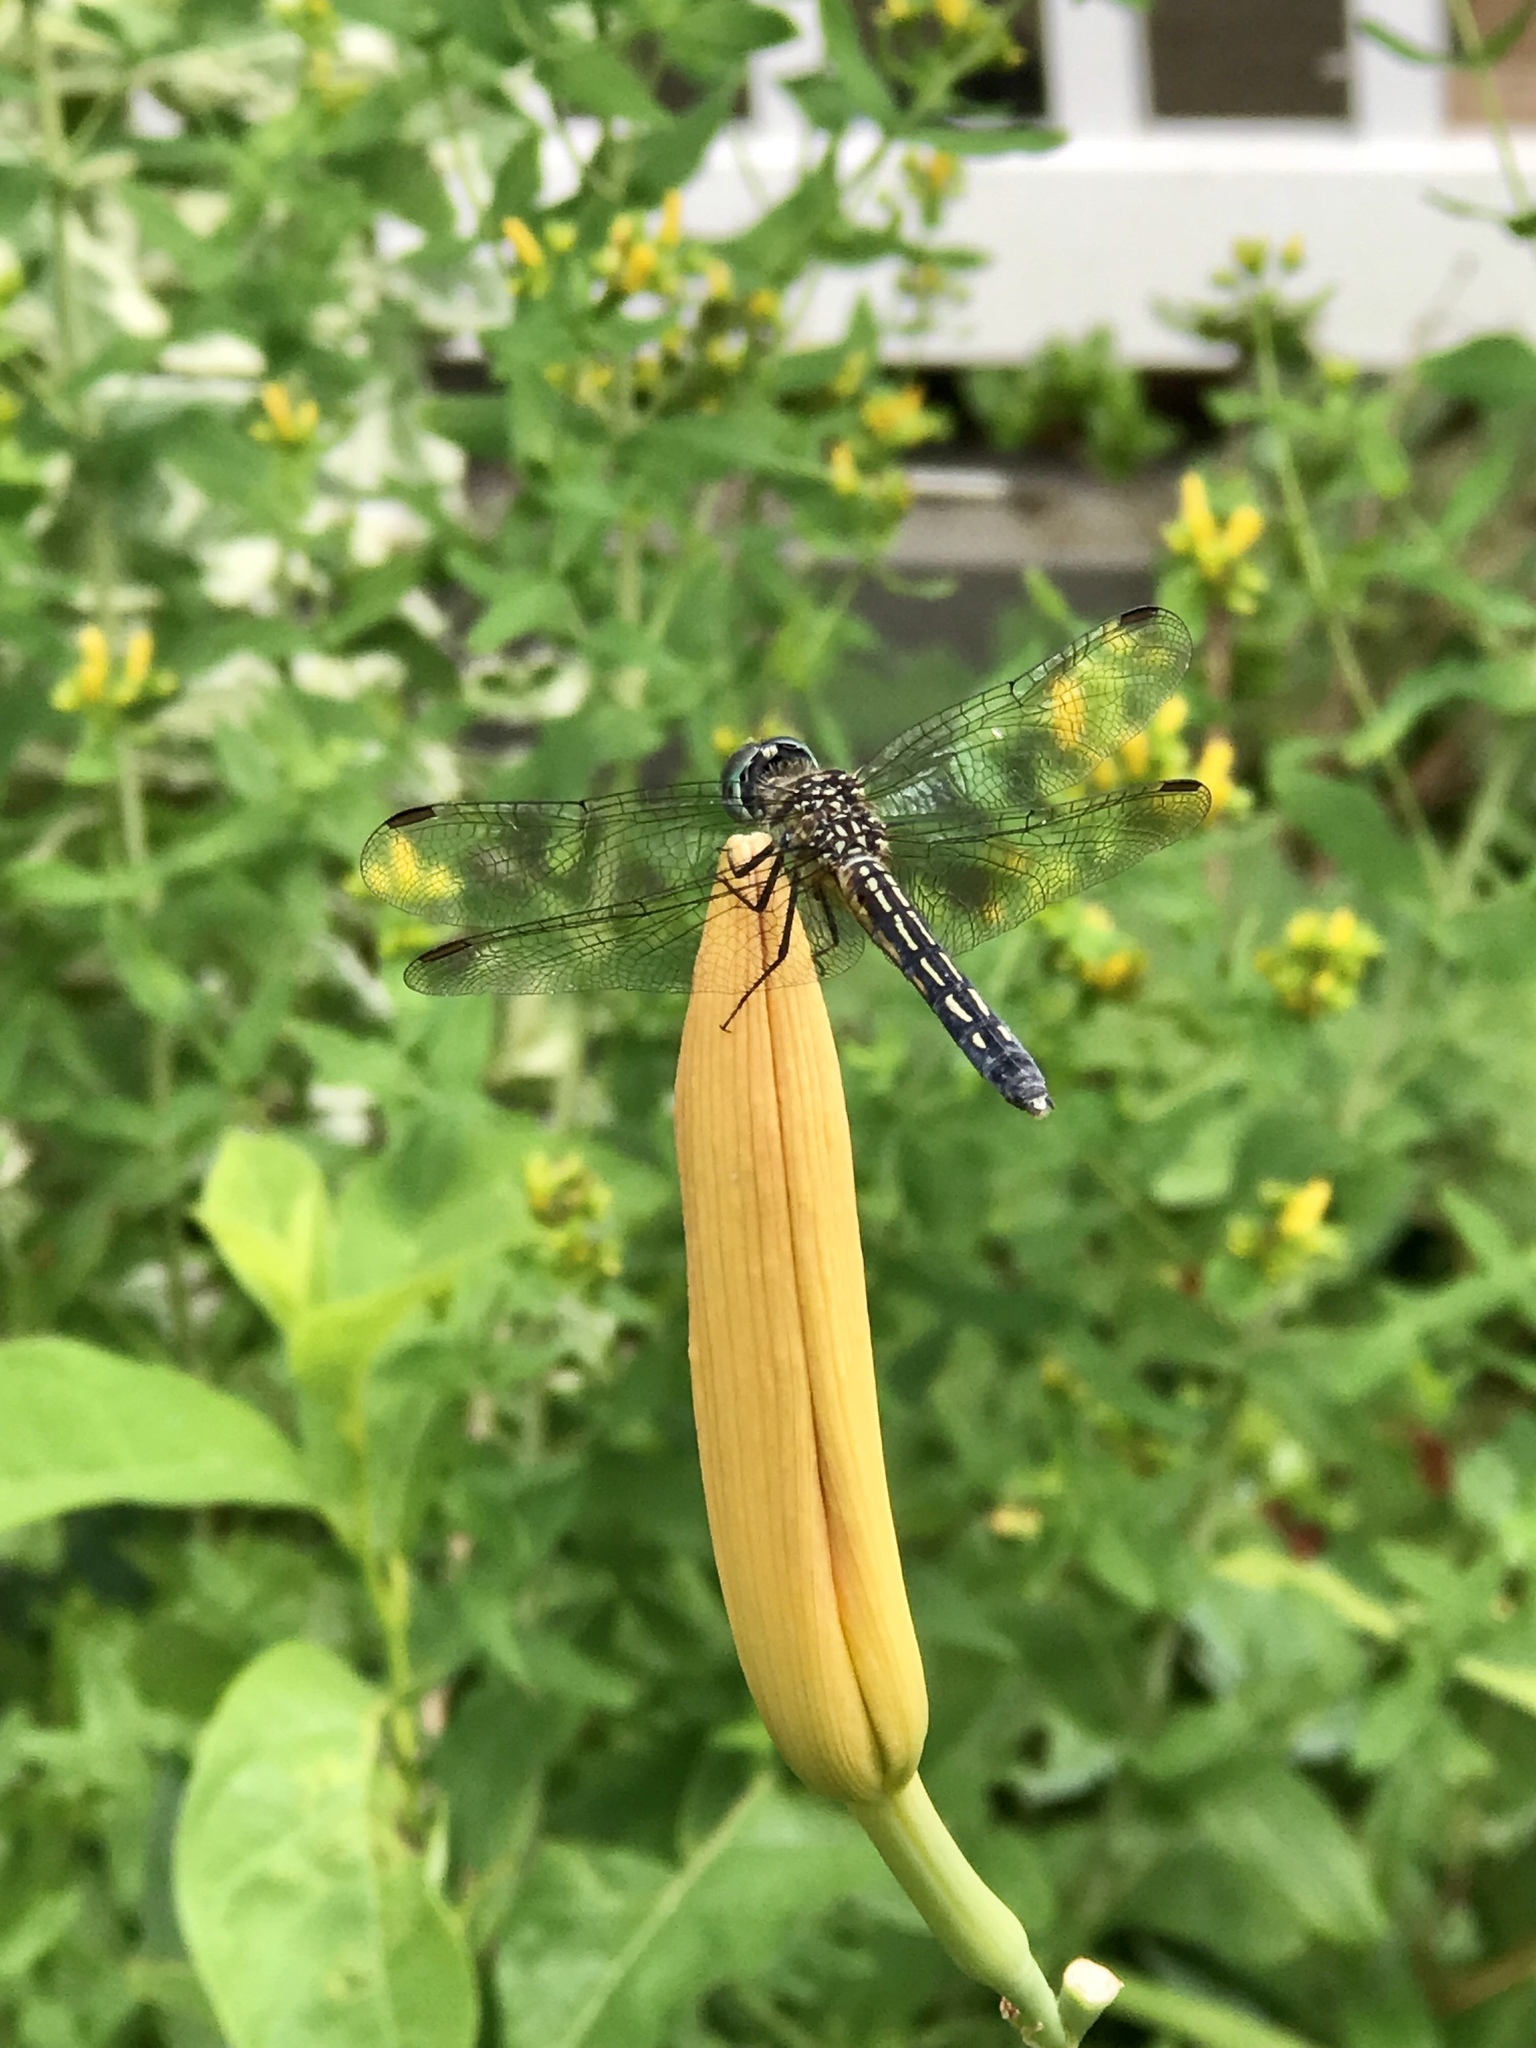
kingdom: Animalia
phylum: Arthropoda
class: Insecta
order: Odonata
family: Libellulidae
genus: Pachydiplax
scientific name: Pachydiplax longipennis
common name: Blue dasher
